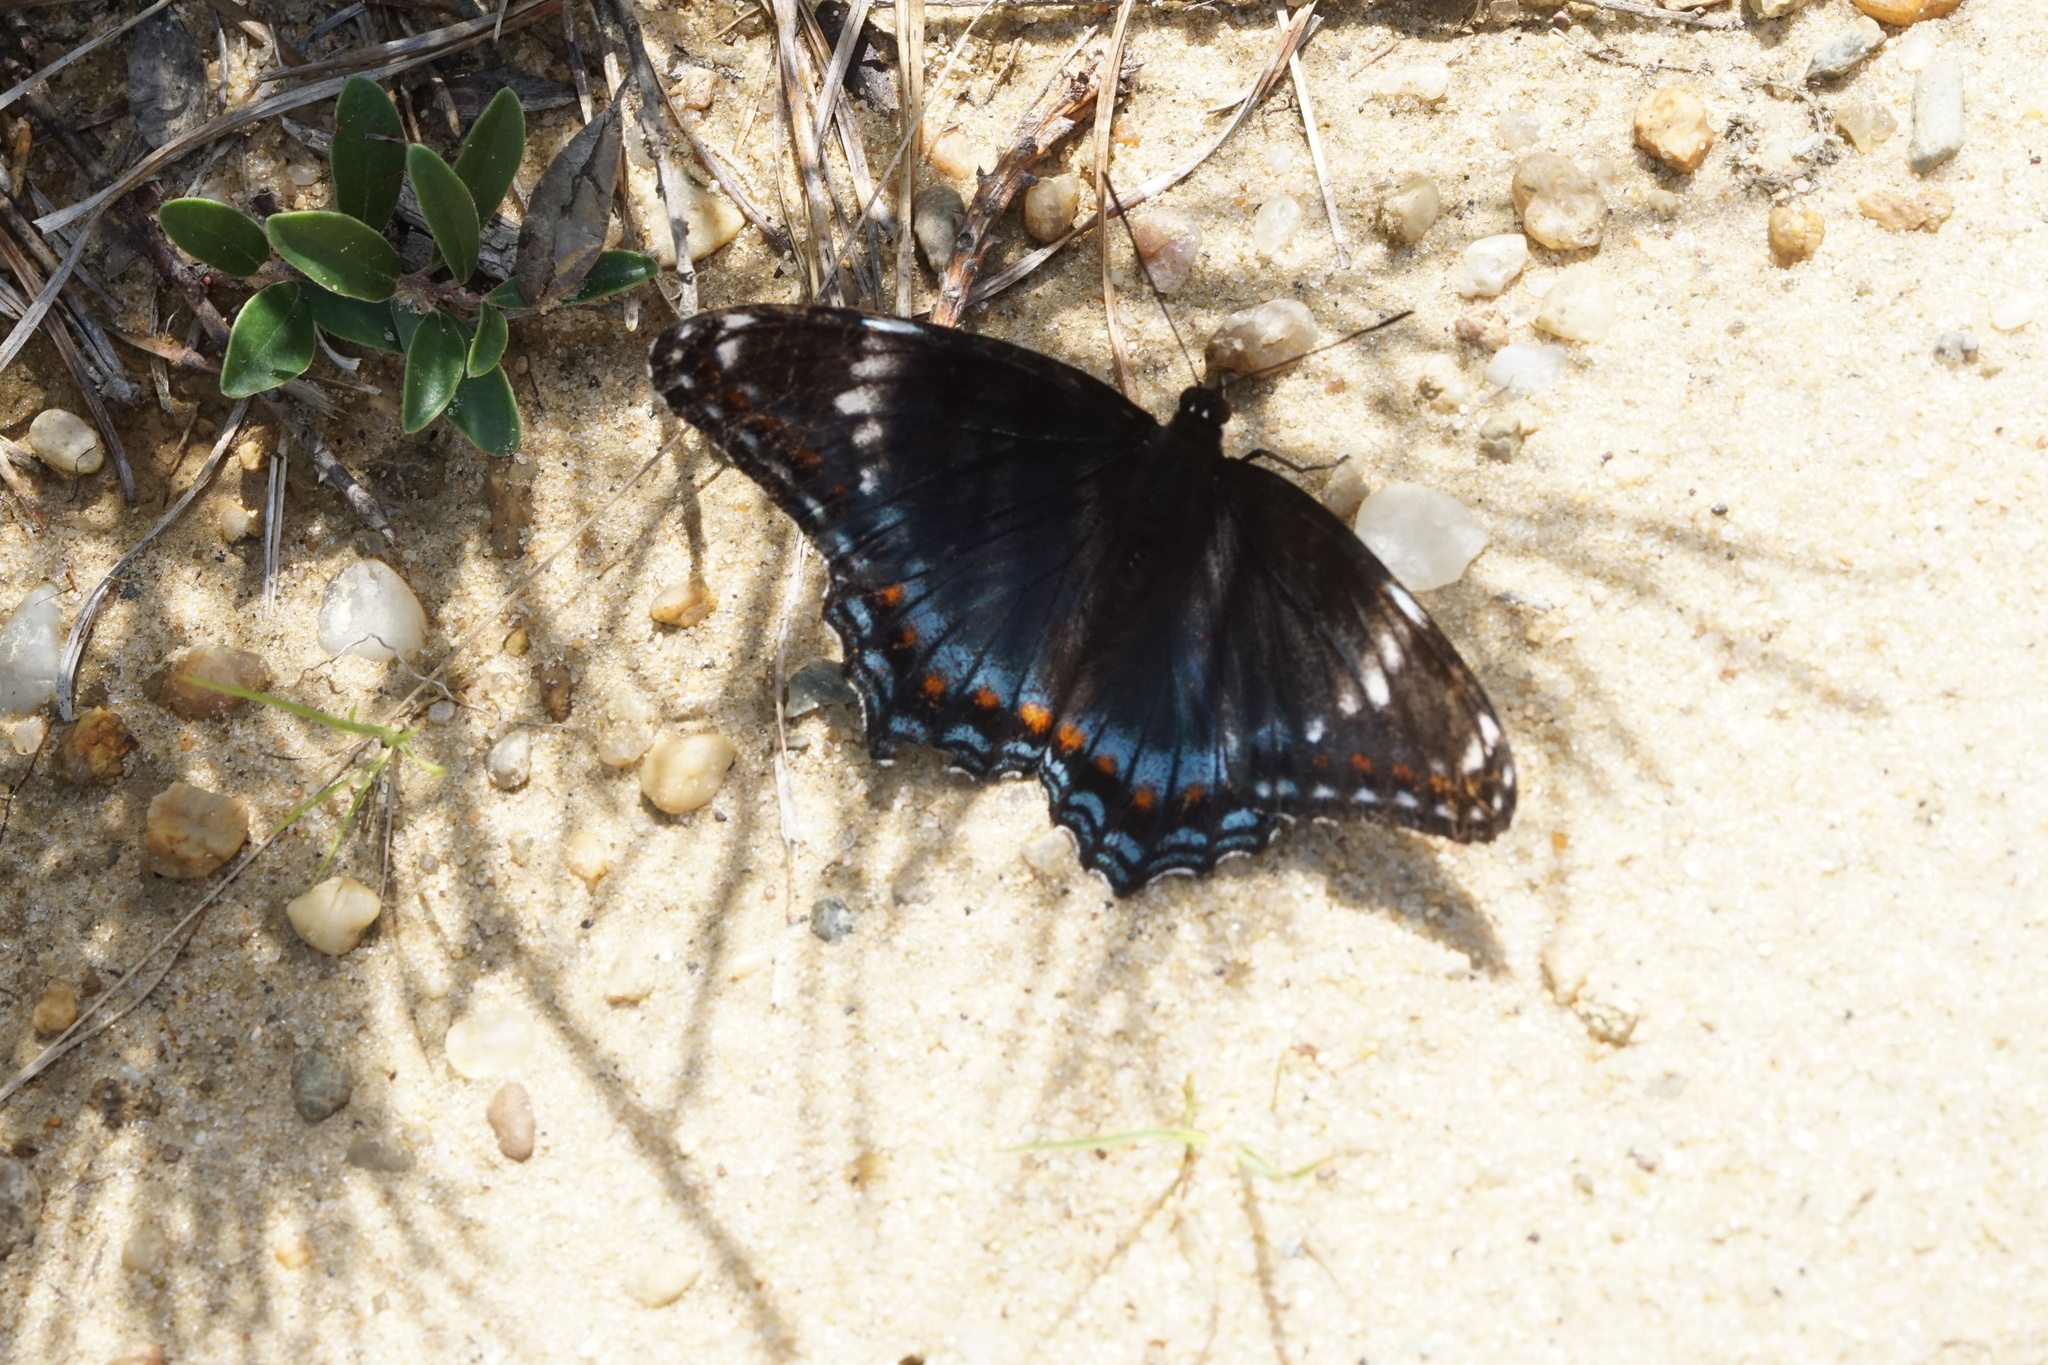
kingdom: Animalia
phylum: Arthropoda
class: Insecta
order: Lepidoptera
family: Nymphalidae
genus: Limenitis
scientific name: Limenitis
